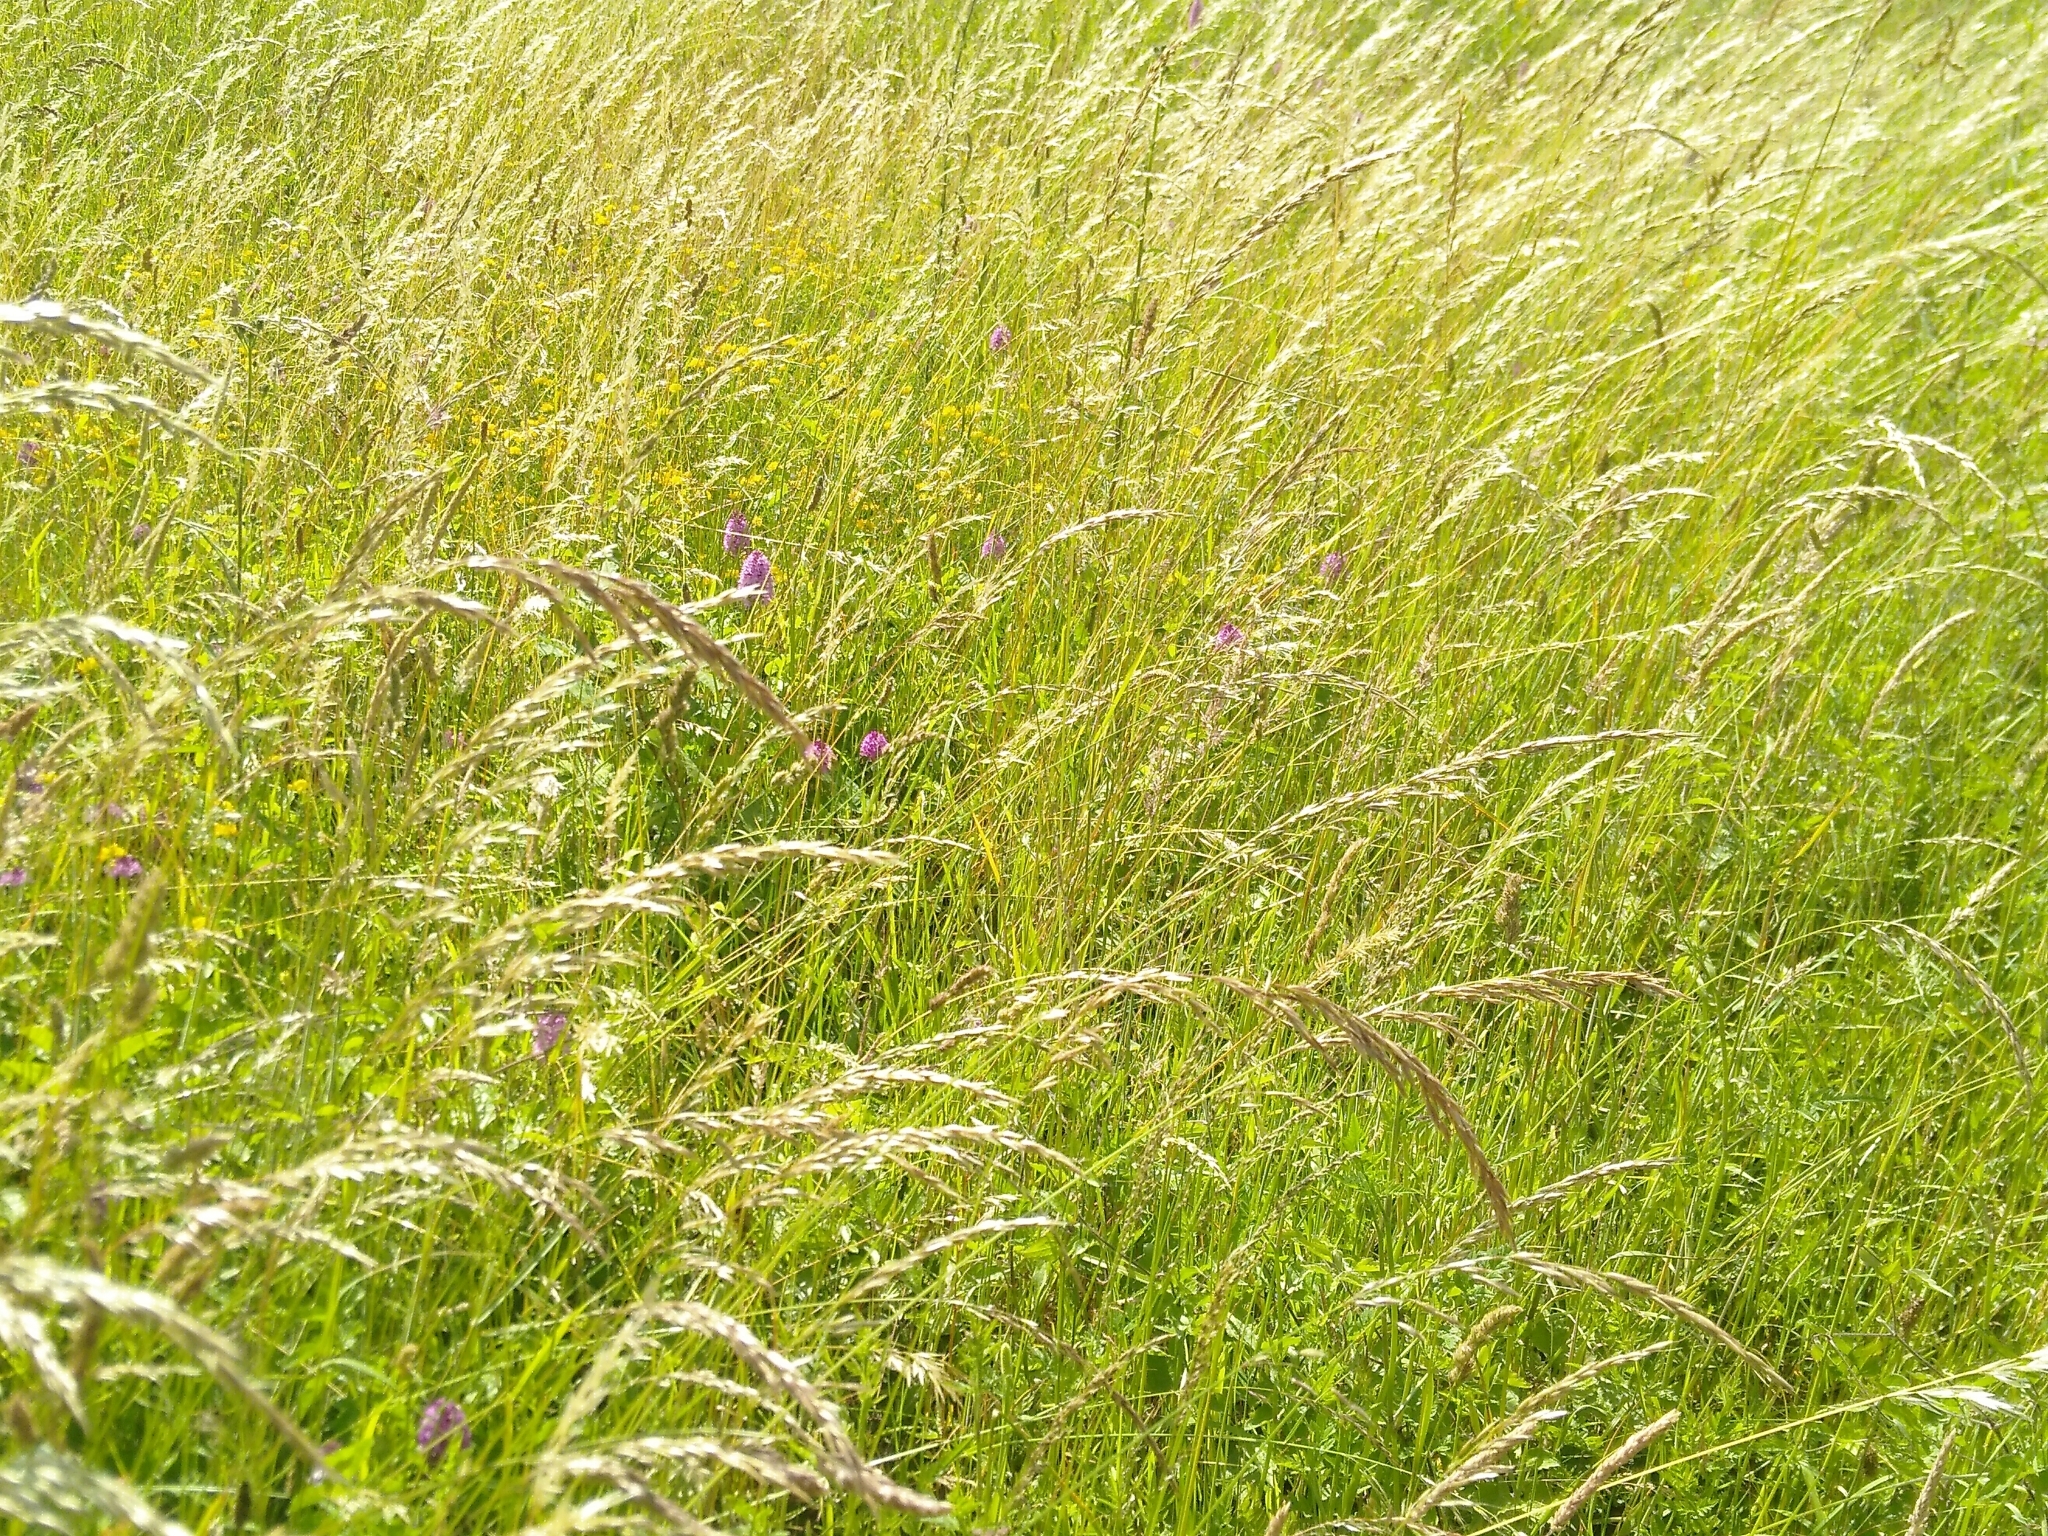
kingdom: Plantae
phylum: Tracheophyta
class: Liliopsida
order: Asparagales
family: Orchidaceae
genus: Anacamptis
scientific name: Anacamptis pyramidalis
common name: Pyramidal orchid
